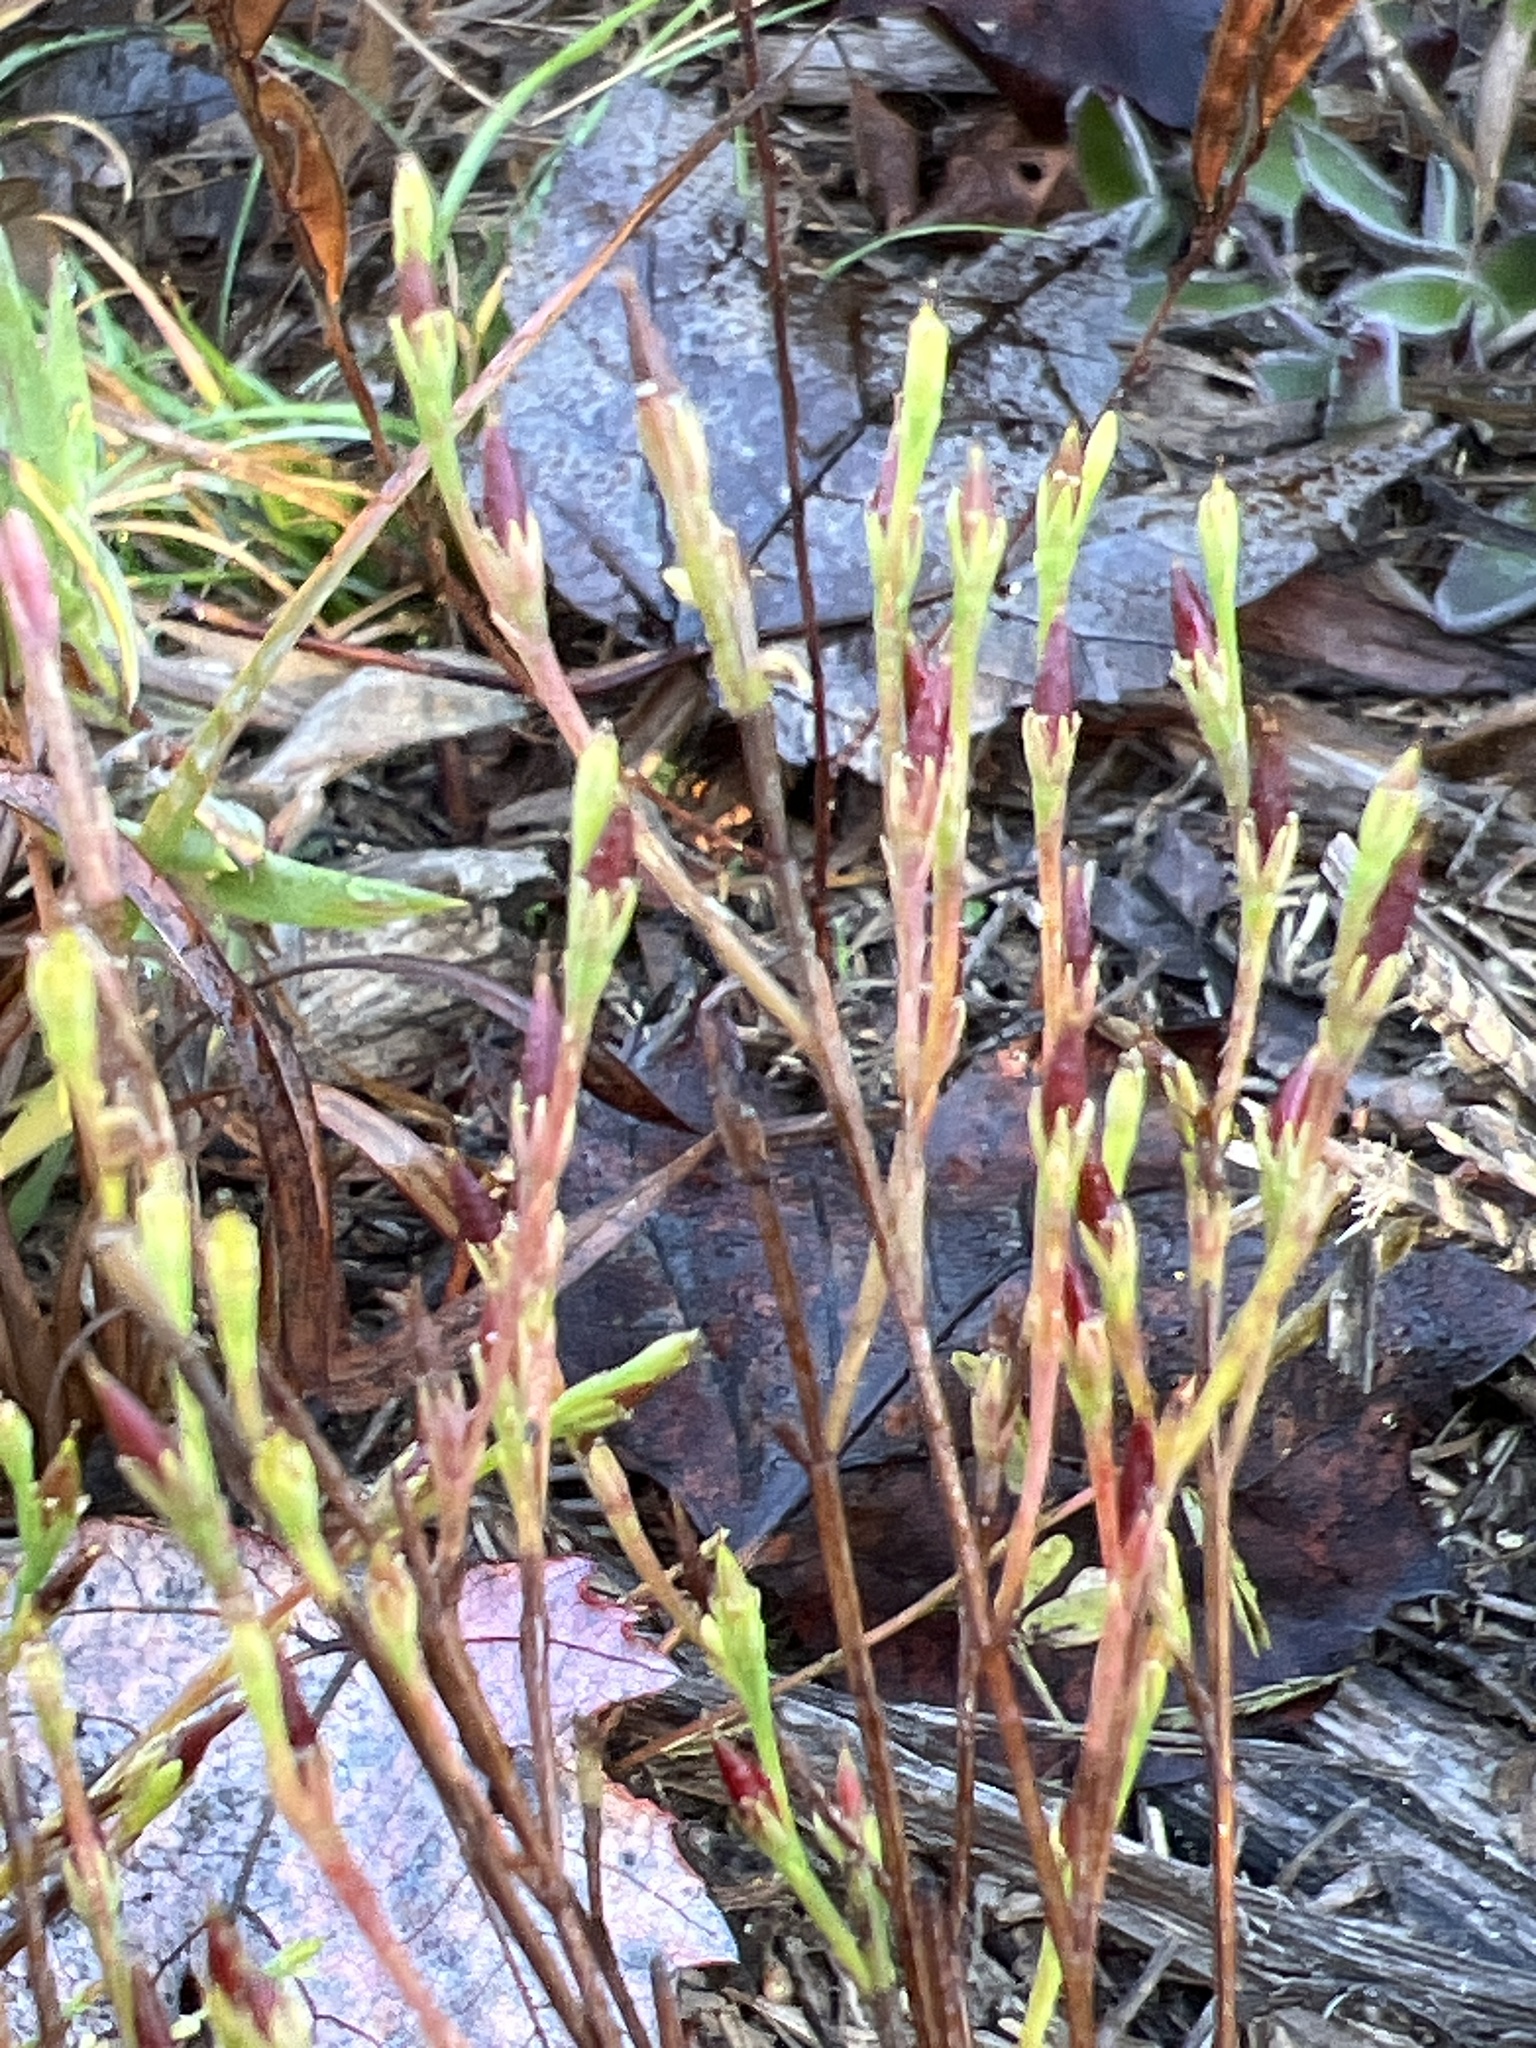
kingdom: Plantae
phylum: Tracheophyta
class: Magnoliopsida
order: Malpighiales
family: Hypericaceae
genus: Hypericum
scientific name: Hypericum gentianoides
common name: Gentian-leaved st. john's-wort
